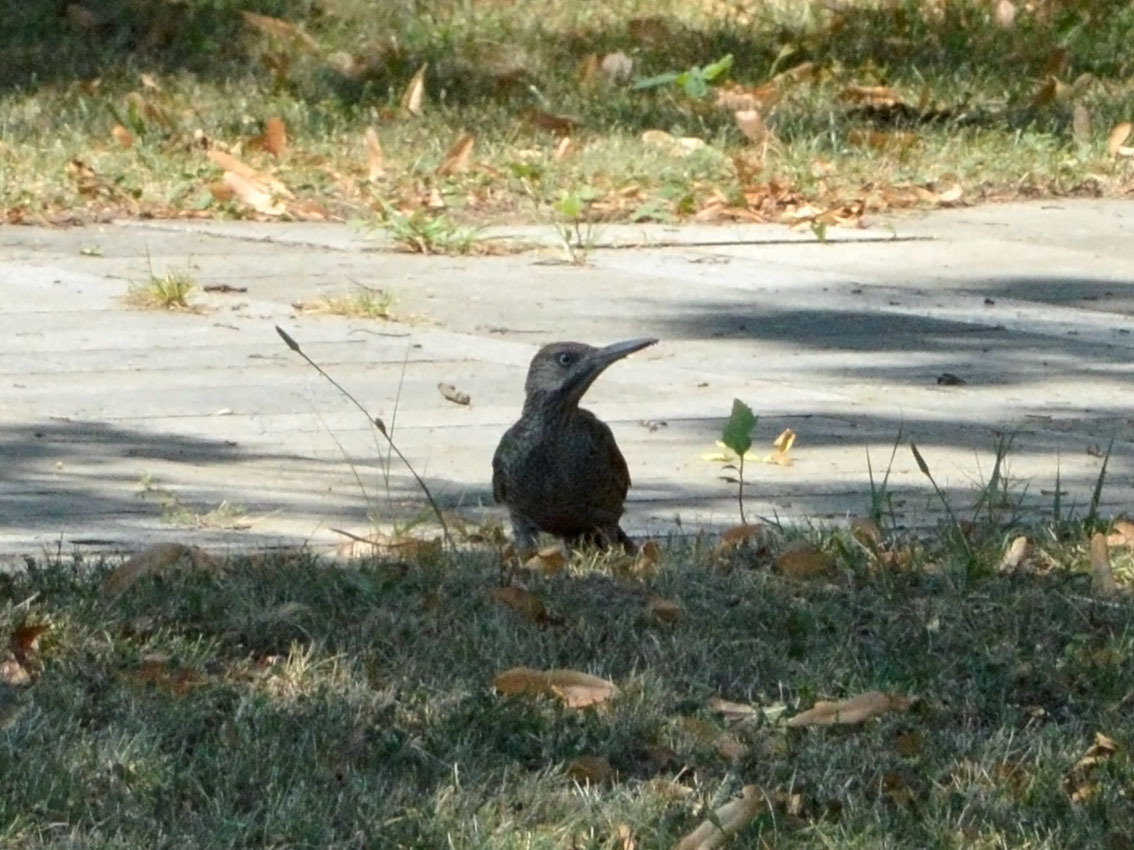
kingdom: Animalia
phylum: Chordata
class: Aves
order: Piciformes
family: Picidae
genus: Picus
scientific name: Picus viridis
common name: European green woodpecker
